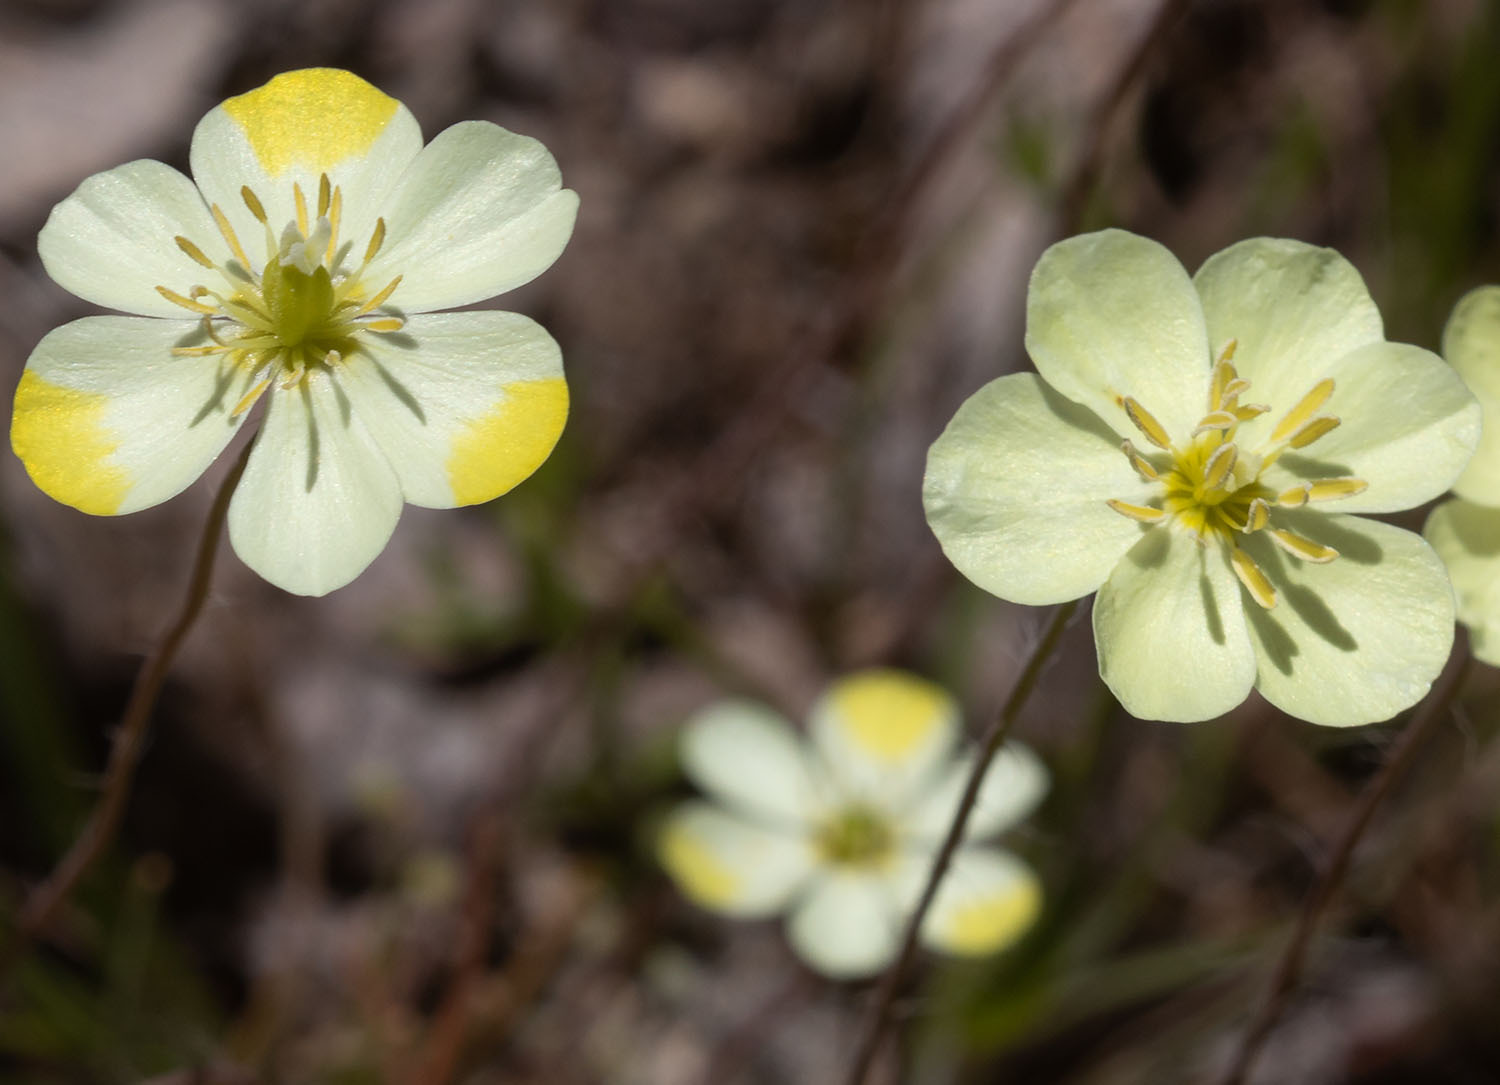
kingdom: Plantae
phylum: Tracheophyta
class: Magnoliopsida
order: Ranunculales
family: Papaveraceae
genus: Platystigma
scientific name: Platystigma lineare
